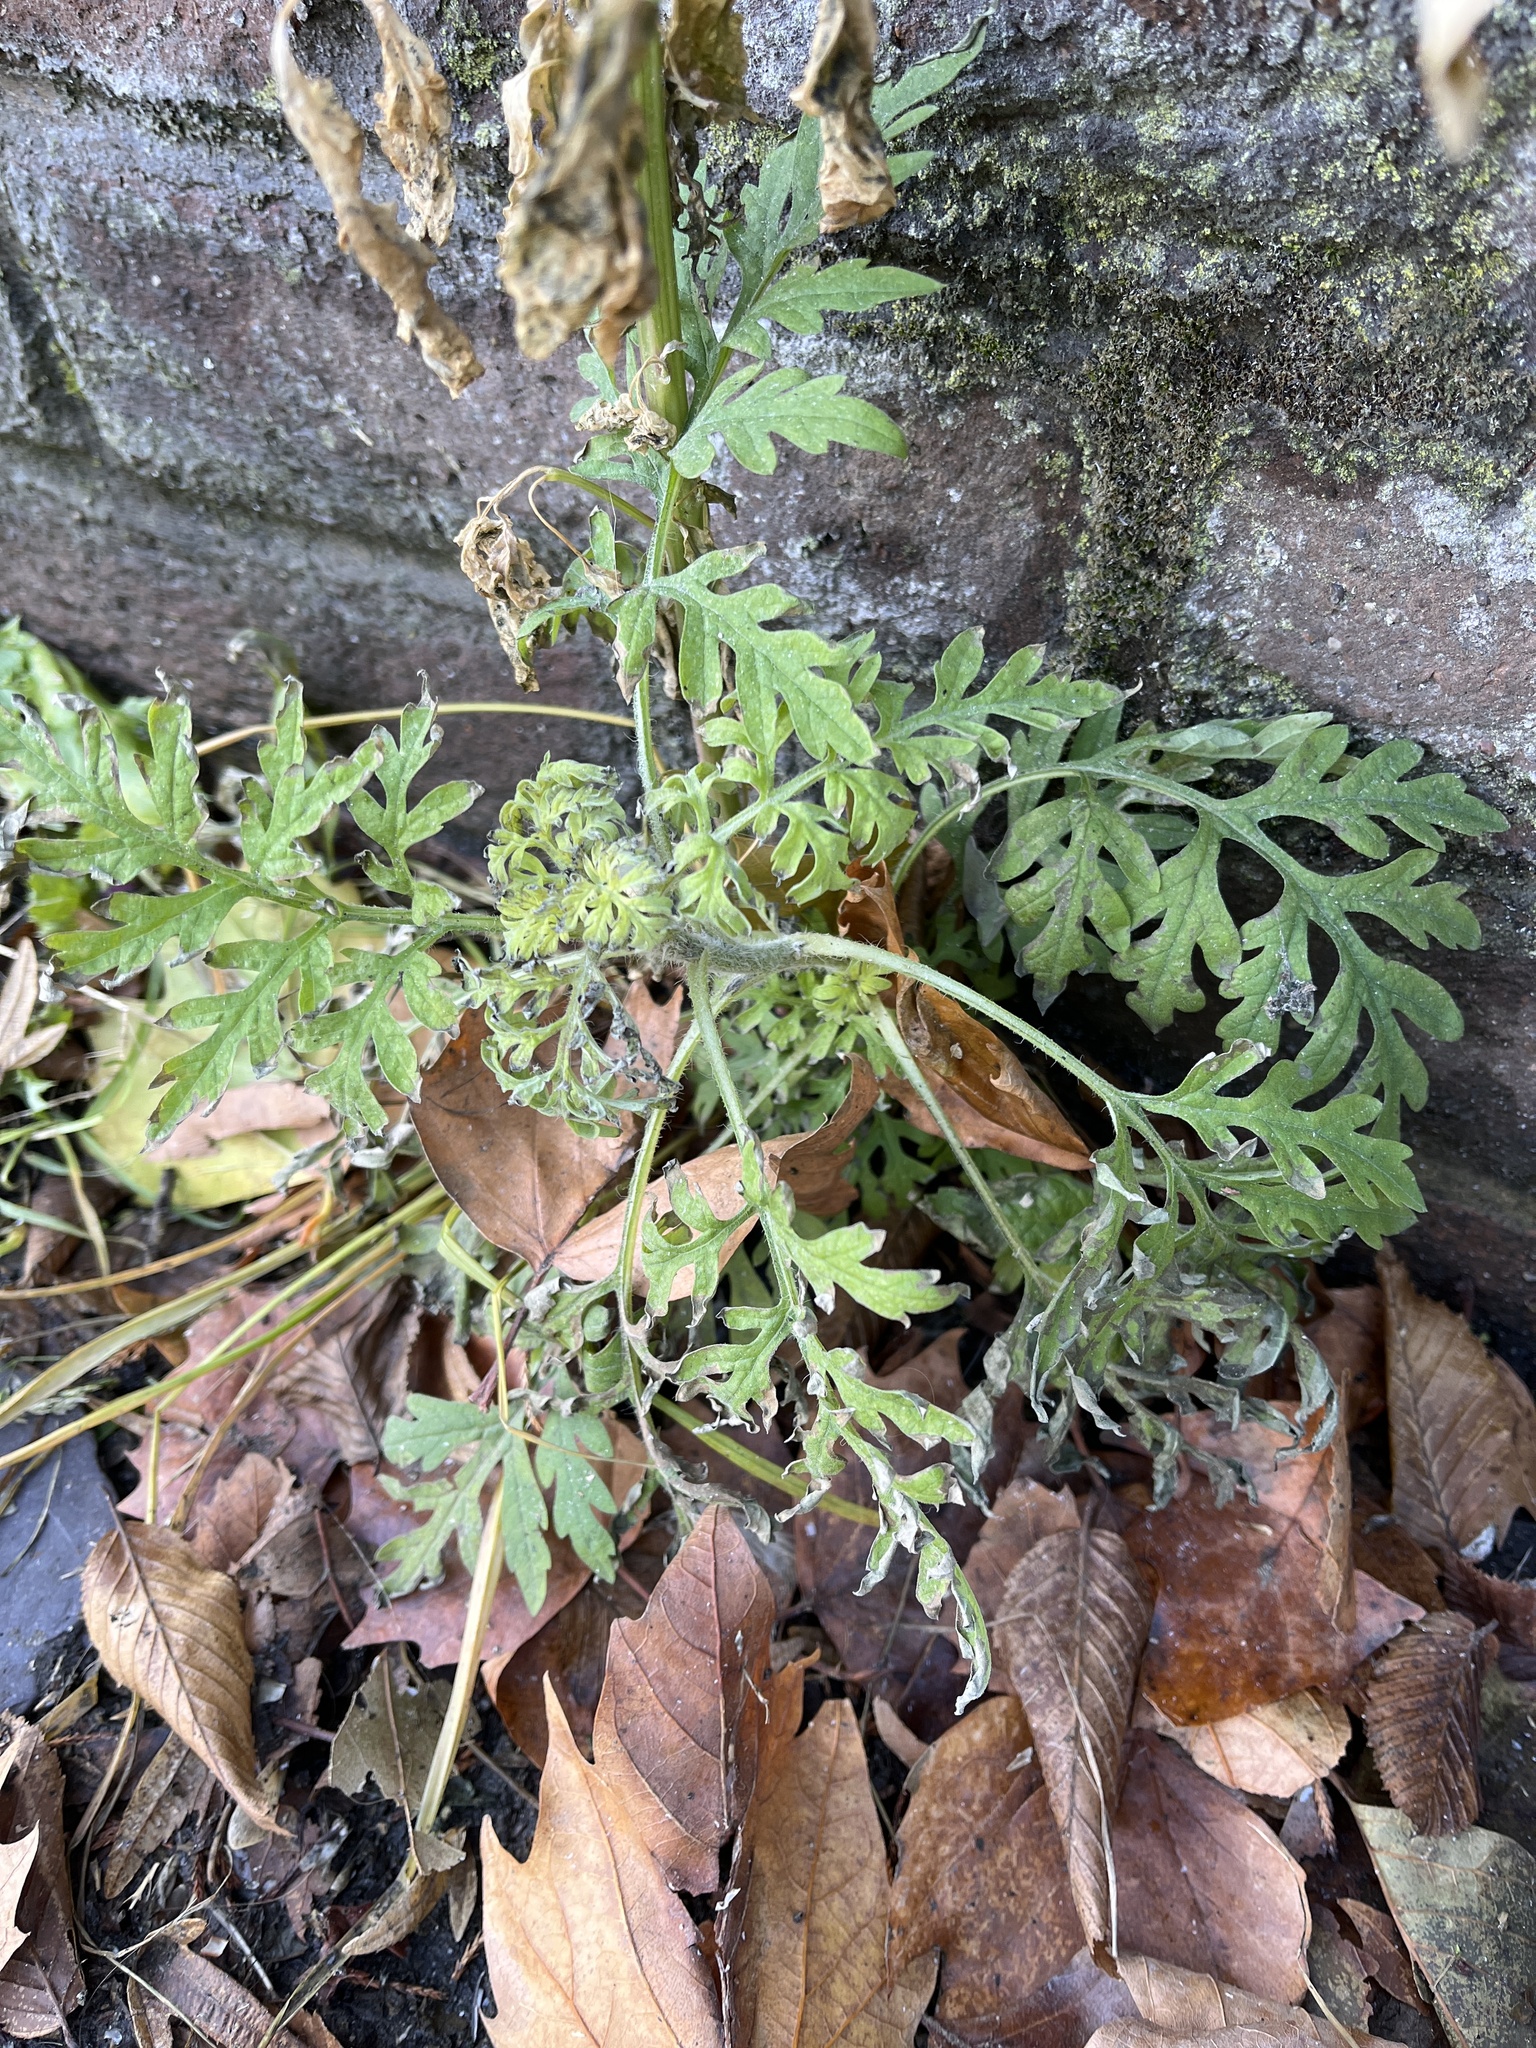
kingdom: Plantae
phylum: Tracheophyta
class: Magnoliopsida
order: Asterales
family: Asteraceae
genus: Ambrosia
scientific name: Ambrosia artemisiifolia
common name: Annual ragweed
